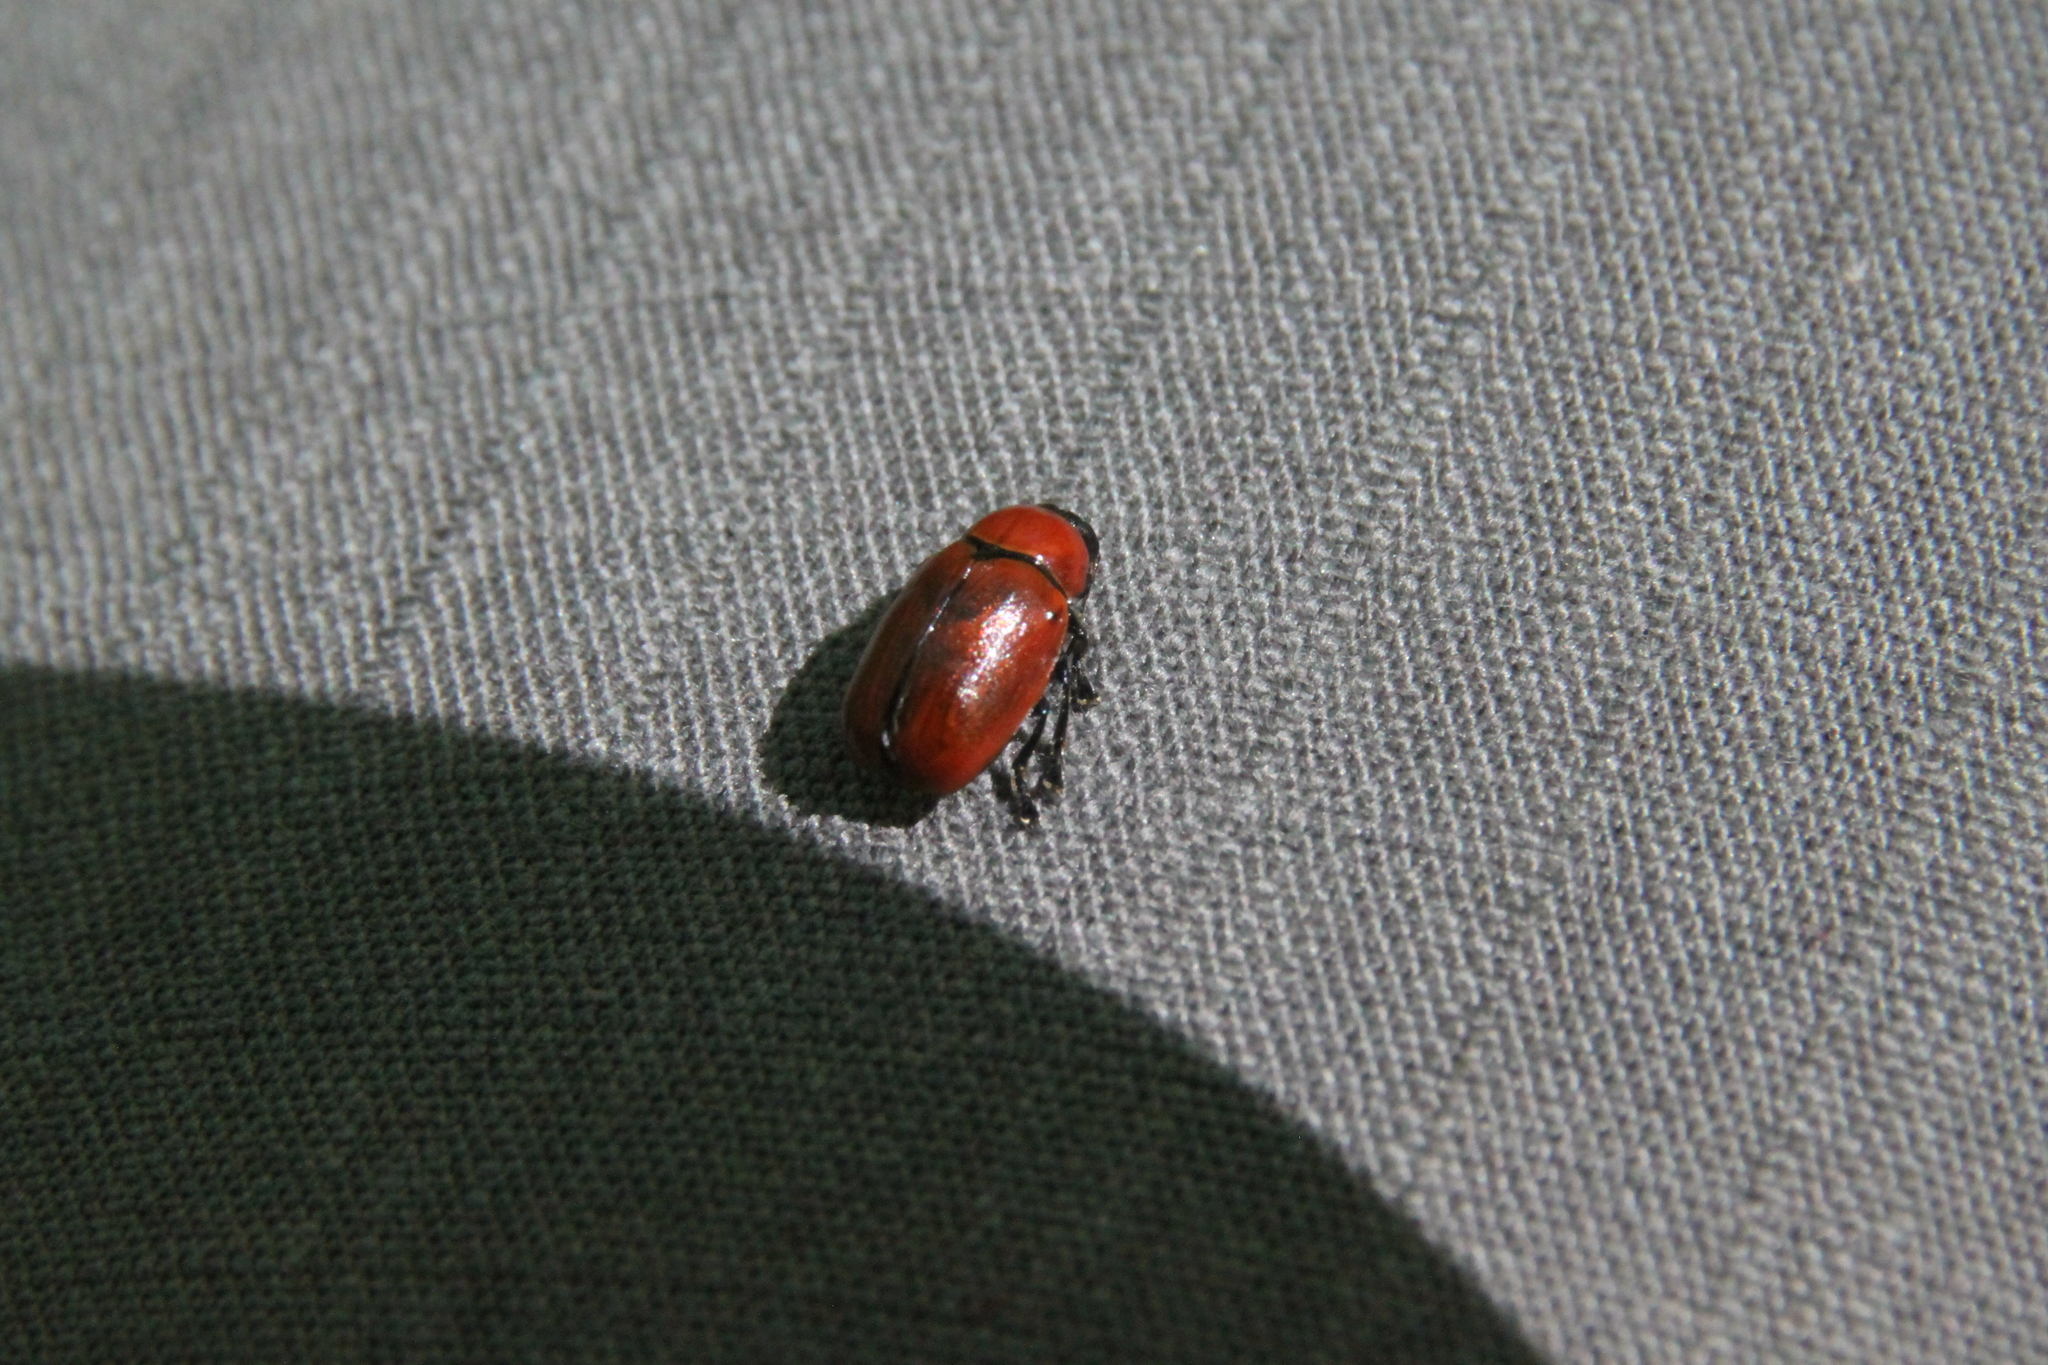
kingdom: Animalia
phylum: Arthropoda
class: Insecta
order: Coleoptera
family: Chrysomelidae
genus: Cryptocephalus
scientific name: Cryptocephalus coryli
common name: Hazel pot beetle
